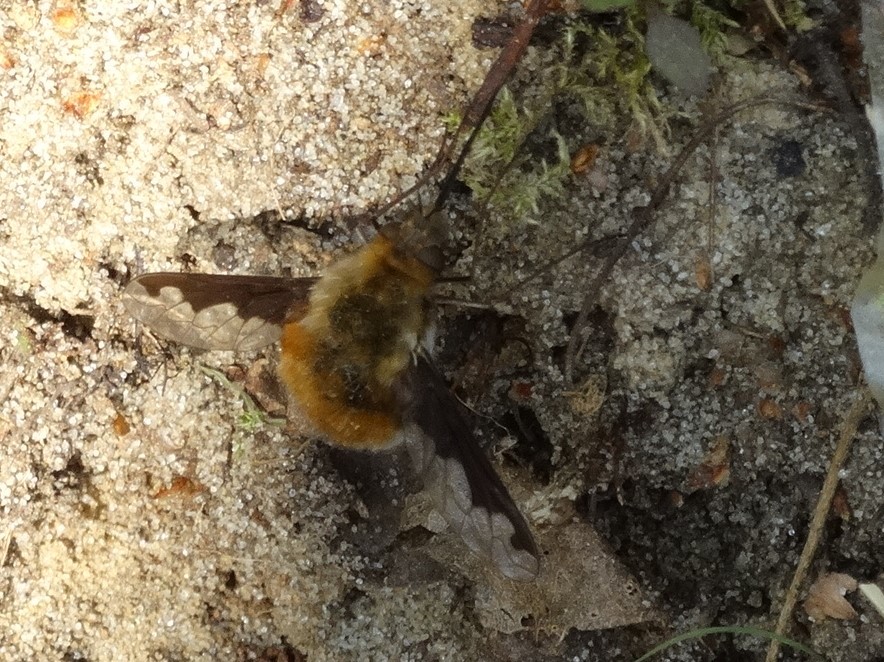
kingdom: Animalia
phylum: Arthropoda
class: Insecta
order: Diptera
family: Bombyliidae
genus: Bombylius
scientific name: Bombylius major
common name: Bee fly
